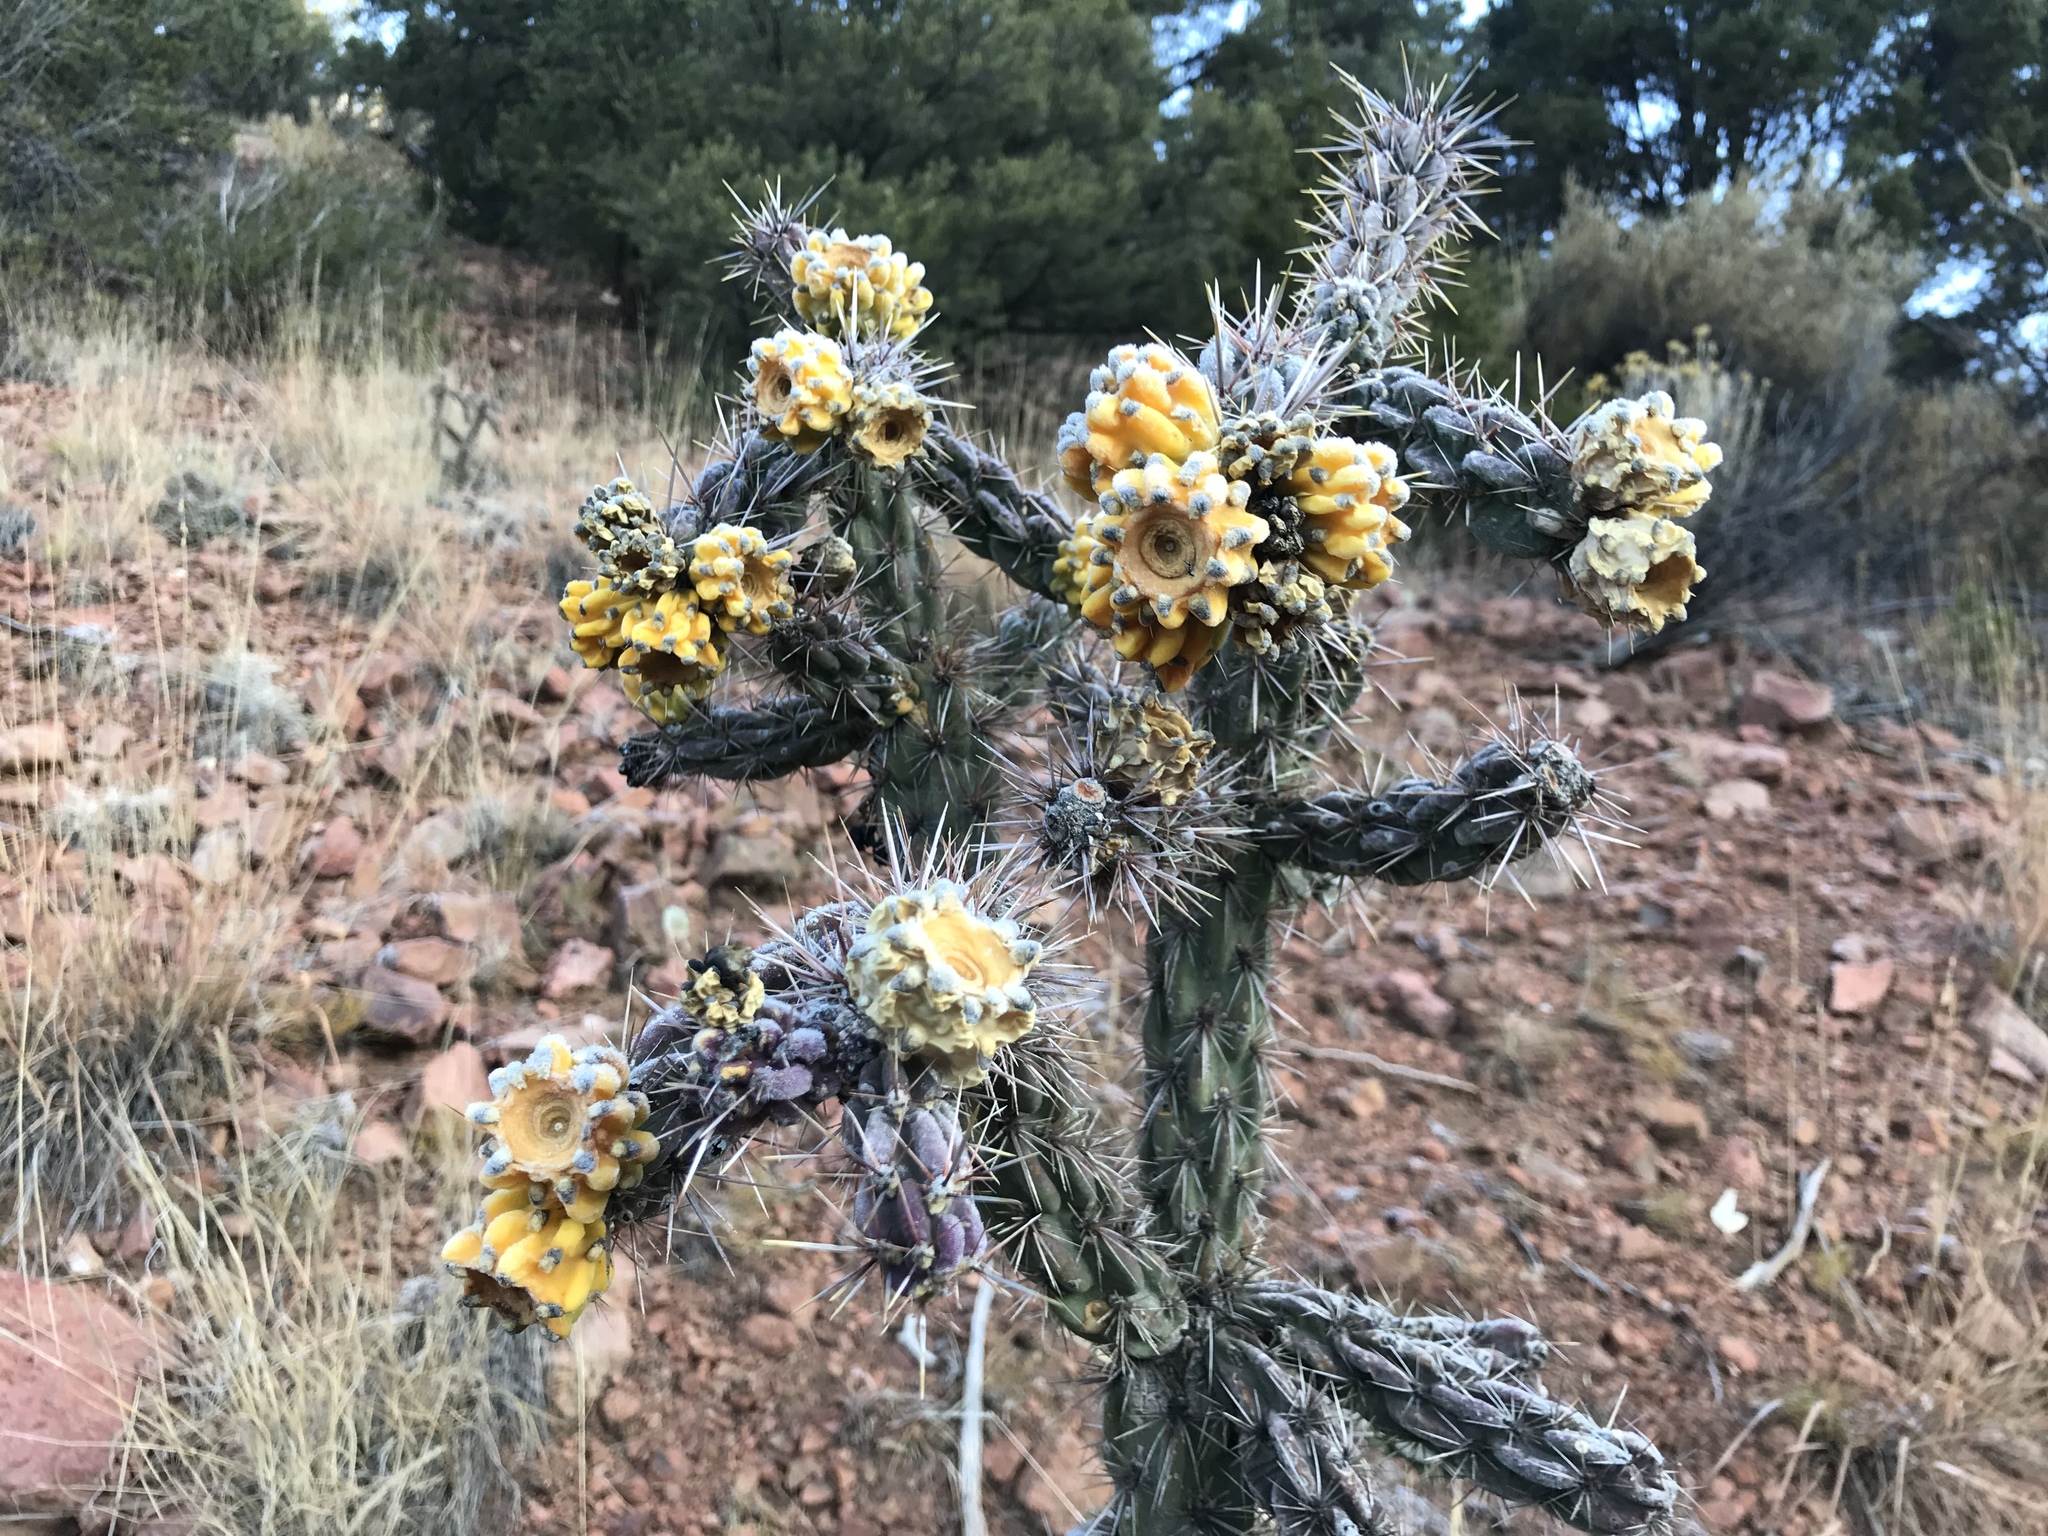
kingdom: Plantae
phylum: Tracheophyta
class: Magnoliopsida
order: Caryophyllales
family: Cactaceae
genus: Cylindropuntia
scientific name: Cylindropuntia imbricata
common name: Candelabrum cactus
